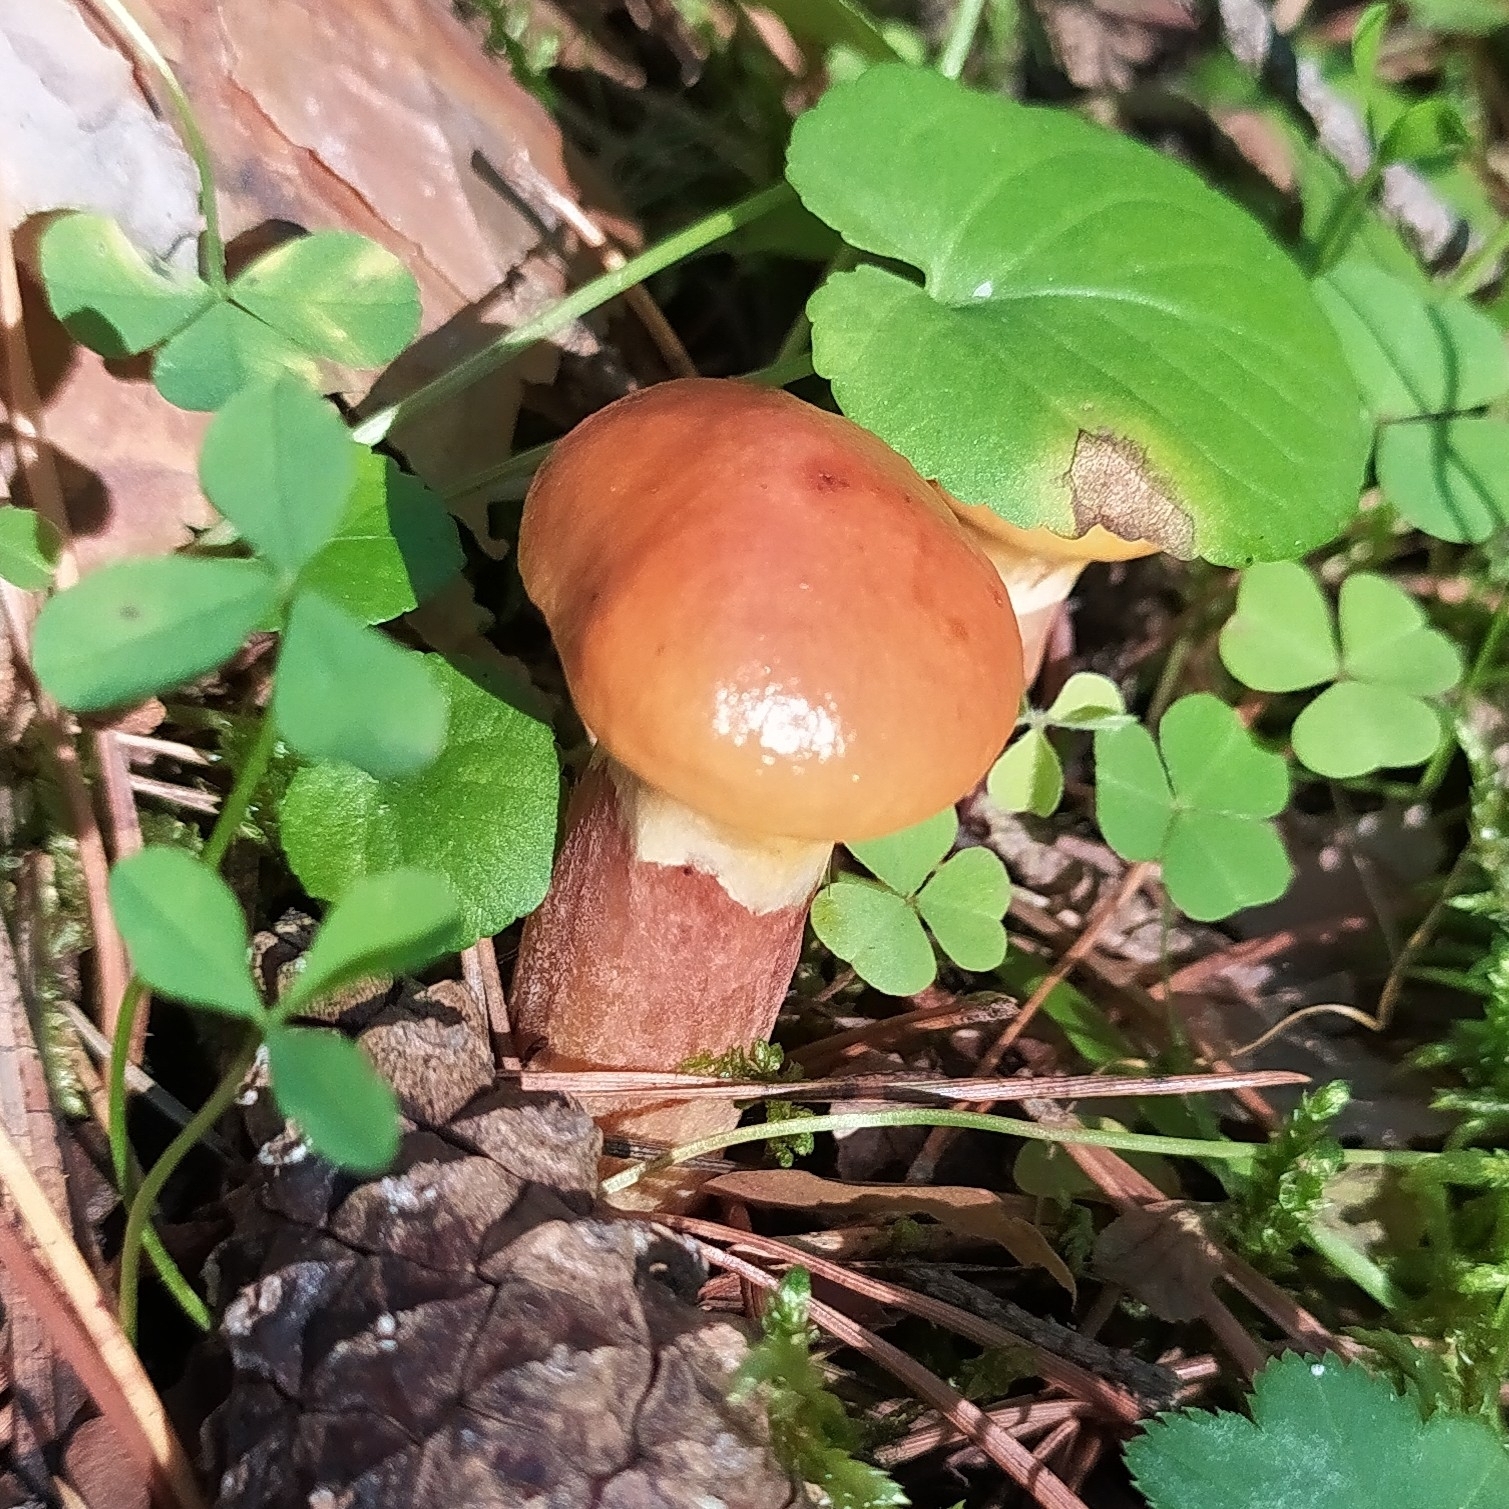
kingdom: Fungi
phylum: Basidiomycota
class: Agaricomycetes
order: Boletales
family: Suillaceae
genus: Suillus
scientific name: Suillus grevillei
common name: Larch bolete
